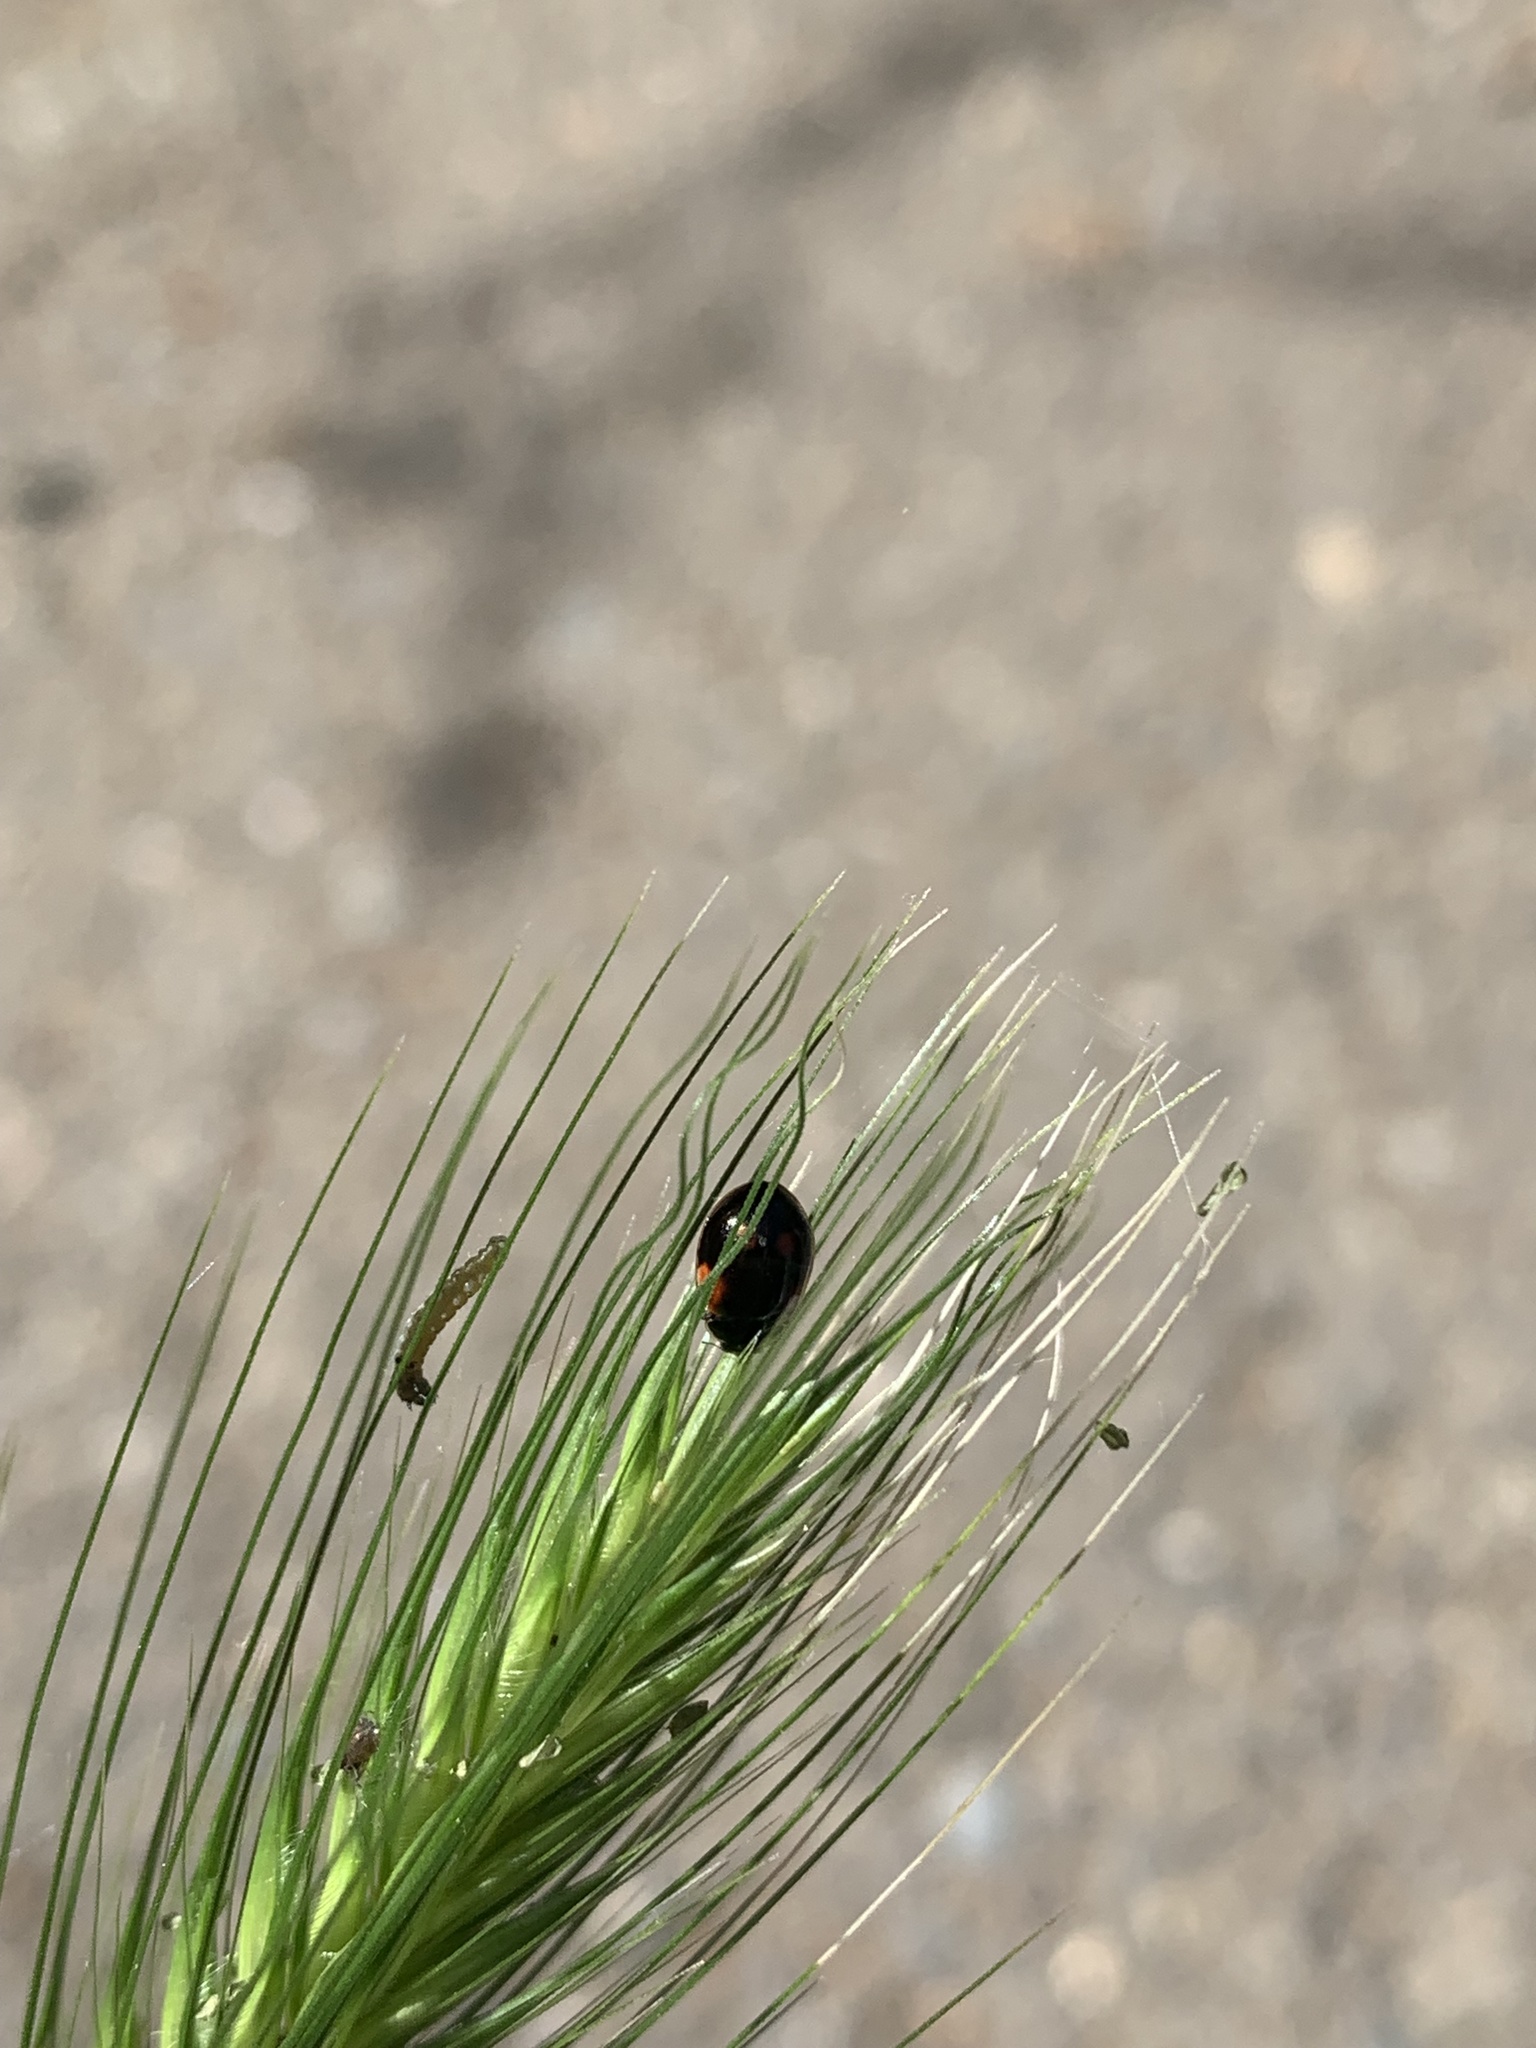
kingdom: Animalia
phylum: Arthropoda
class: Insecta
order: Coleoptera
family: Coccinellidae
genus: Adalia
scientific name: Adalia bipunctata
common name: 2-spot ladybird
